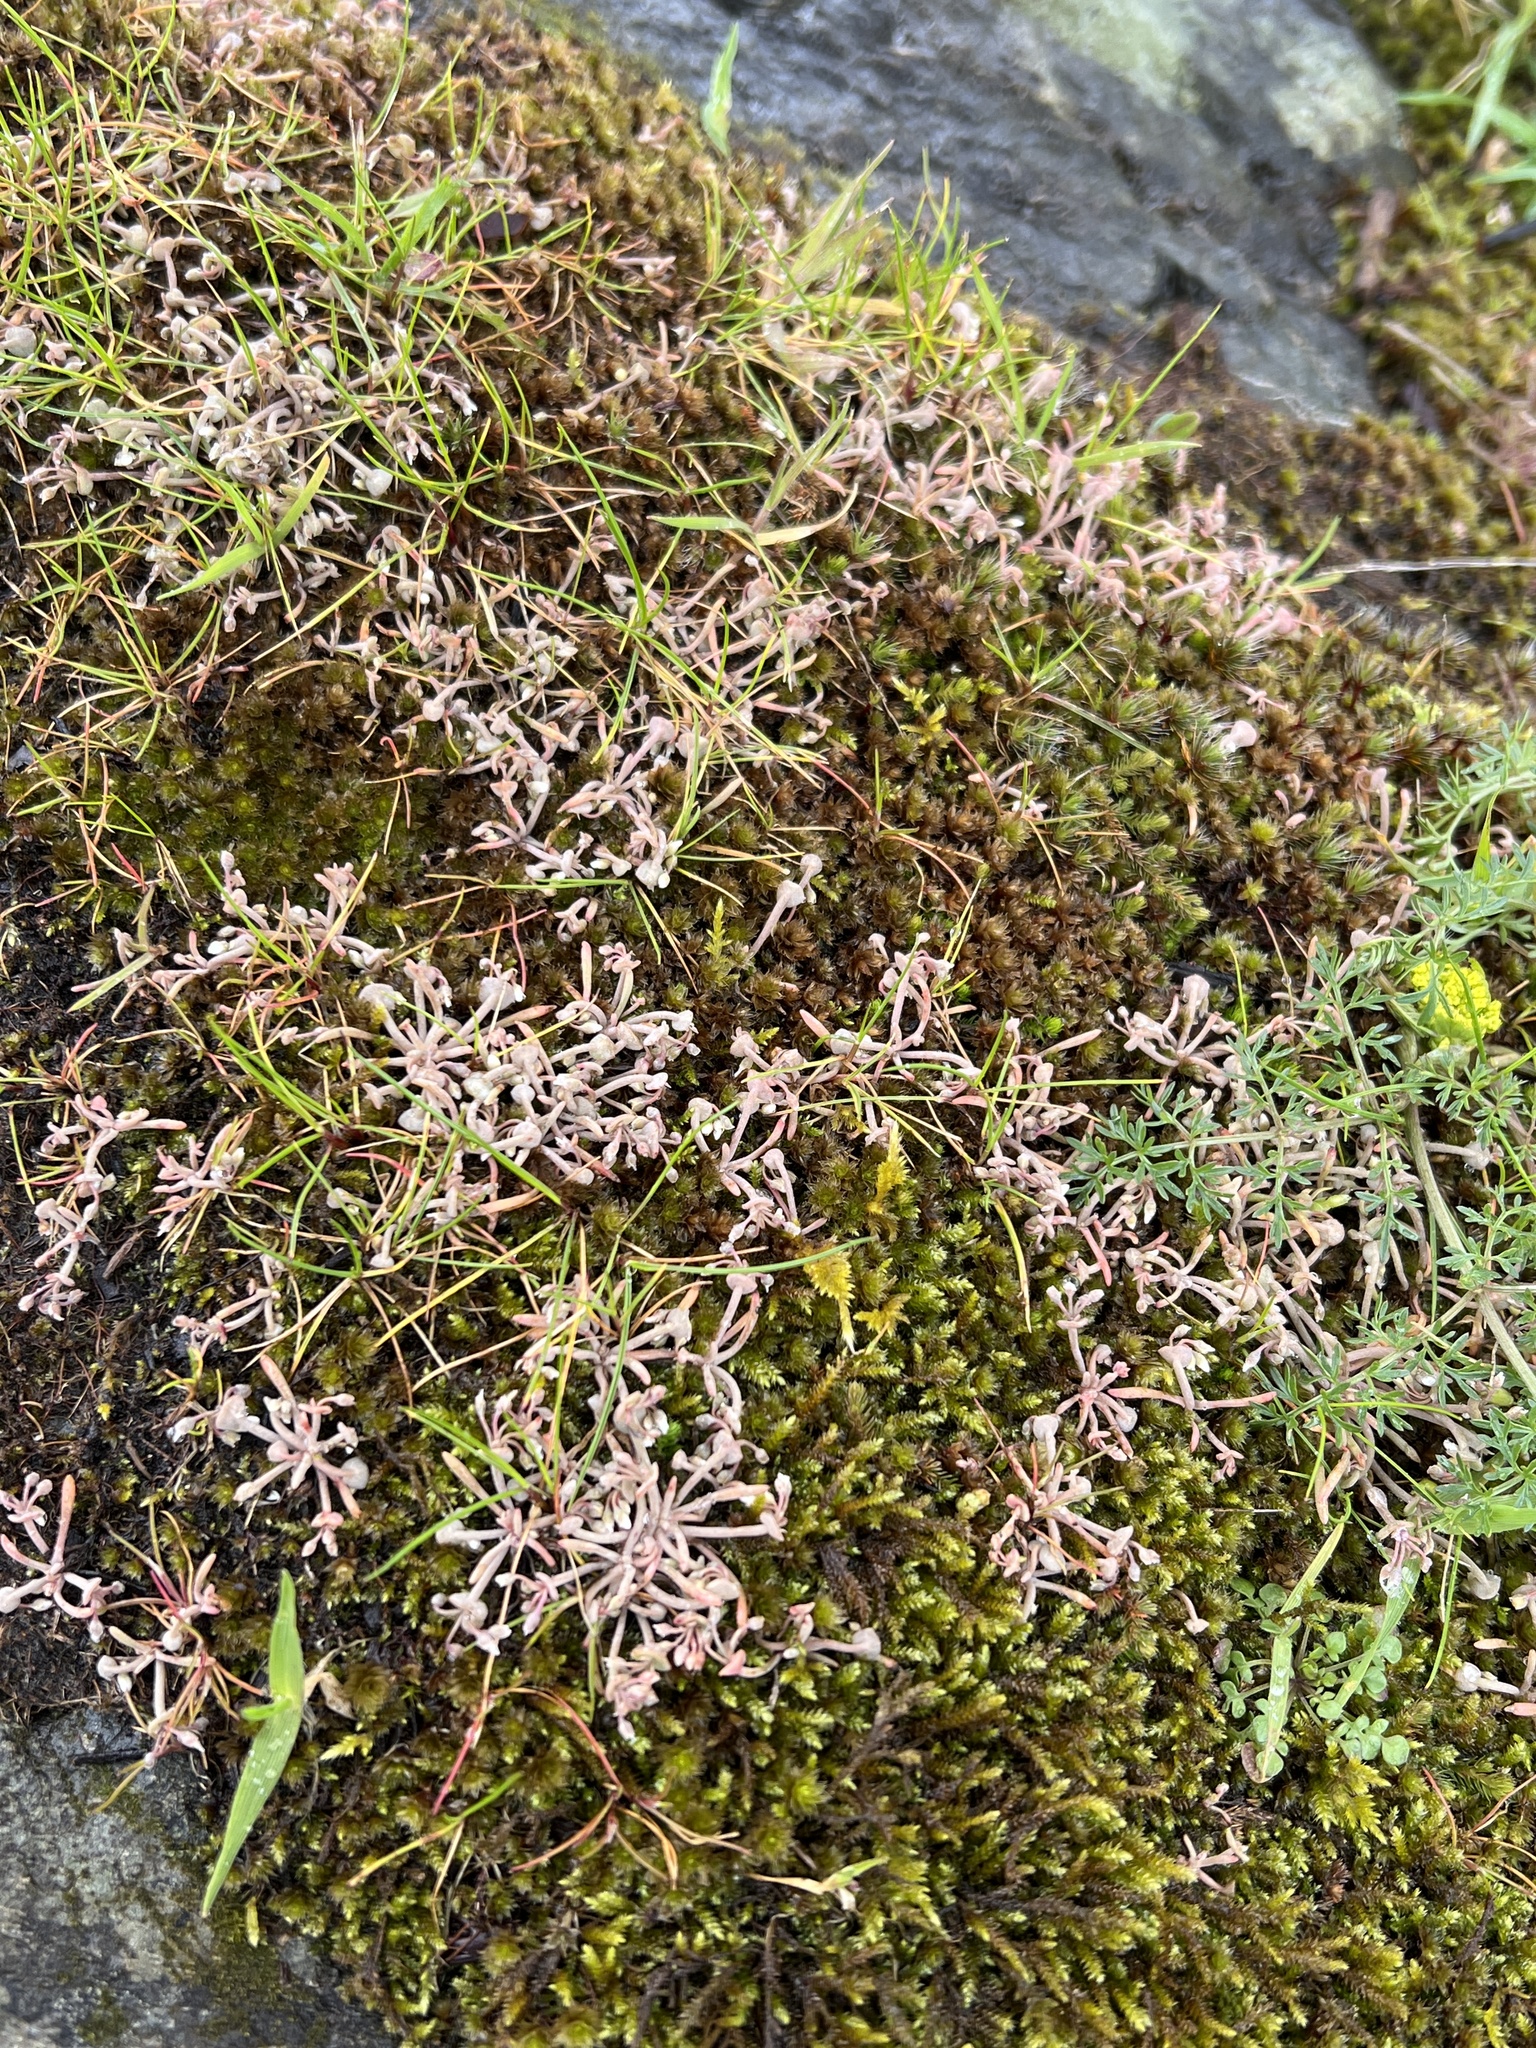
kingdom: Plantae
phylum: Tracheophyta
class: Magnoliopsida
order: Caryophyllales
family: Montiaceae
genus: Claytonia
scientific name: Claytonia exigua
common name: Pale spring beauty
